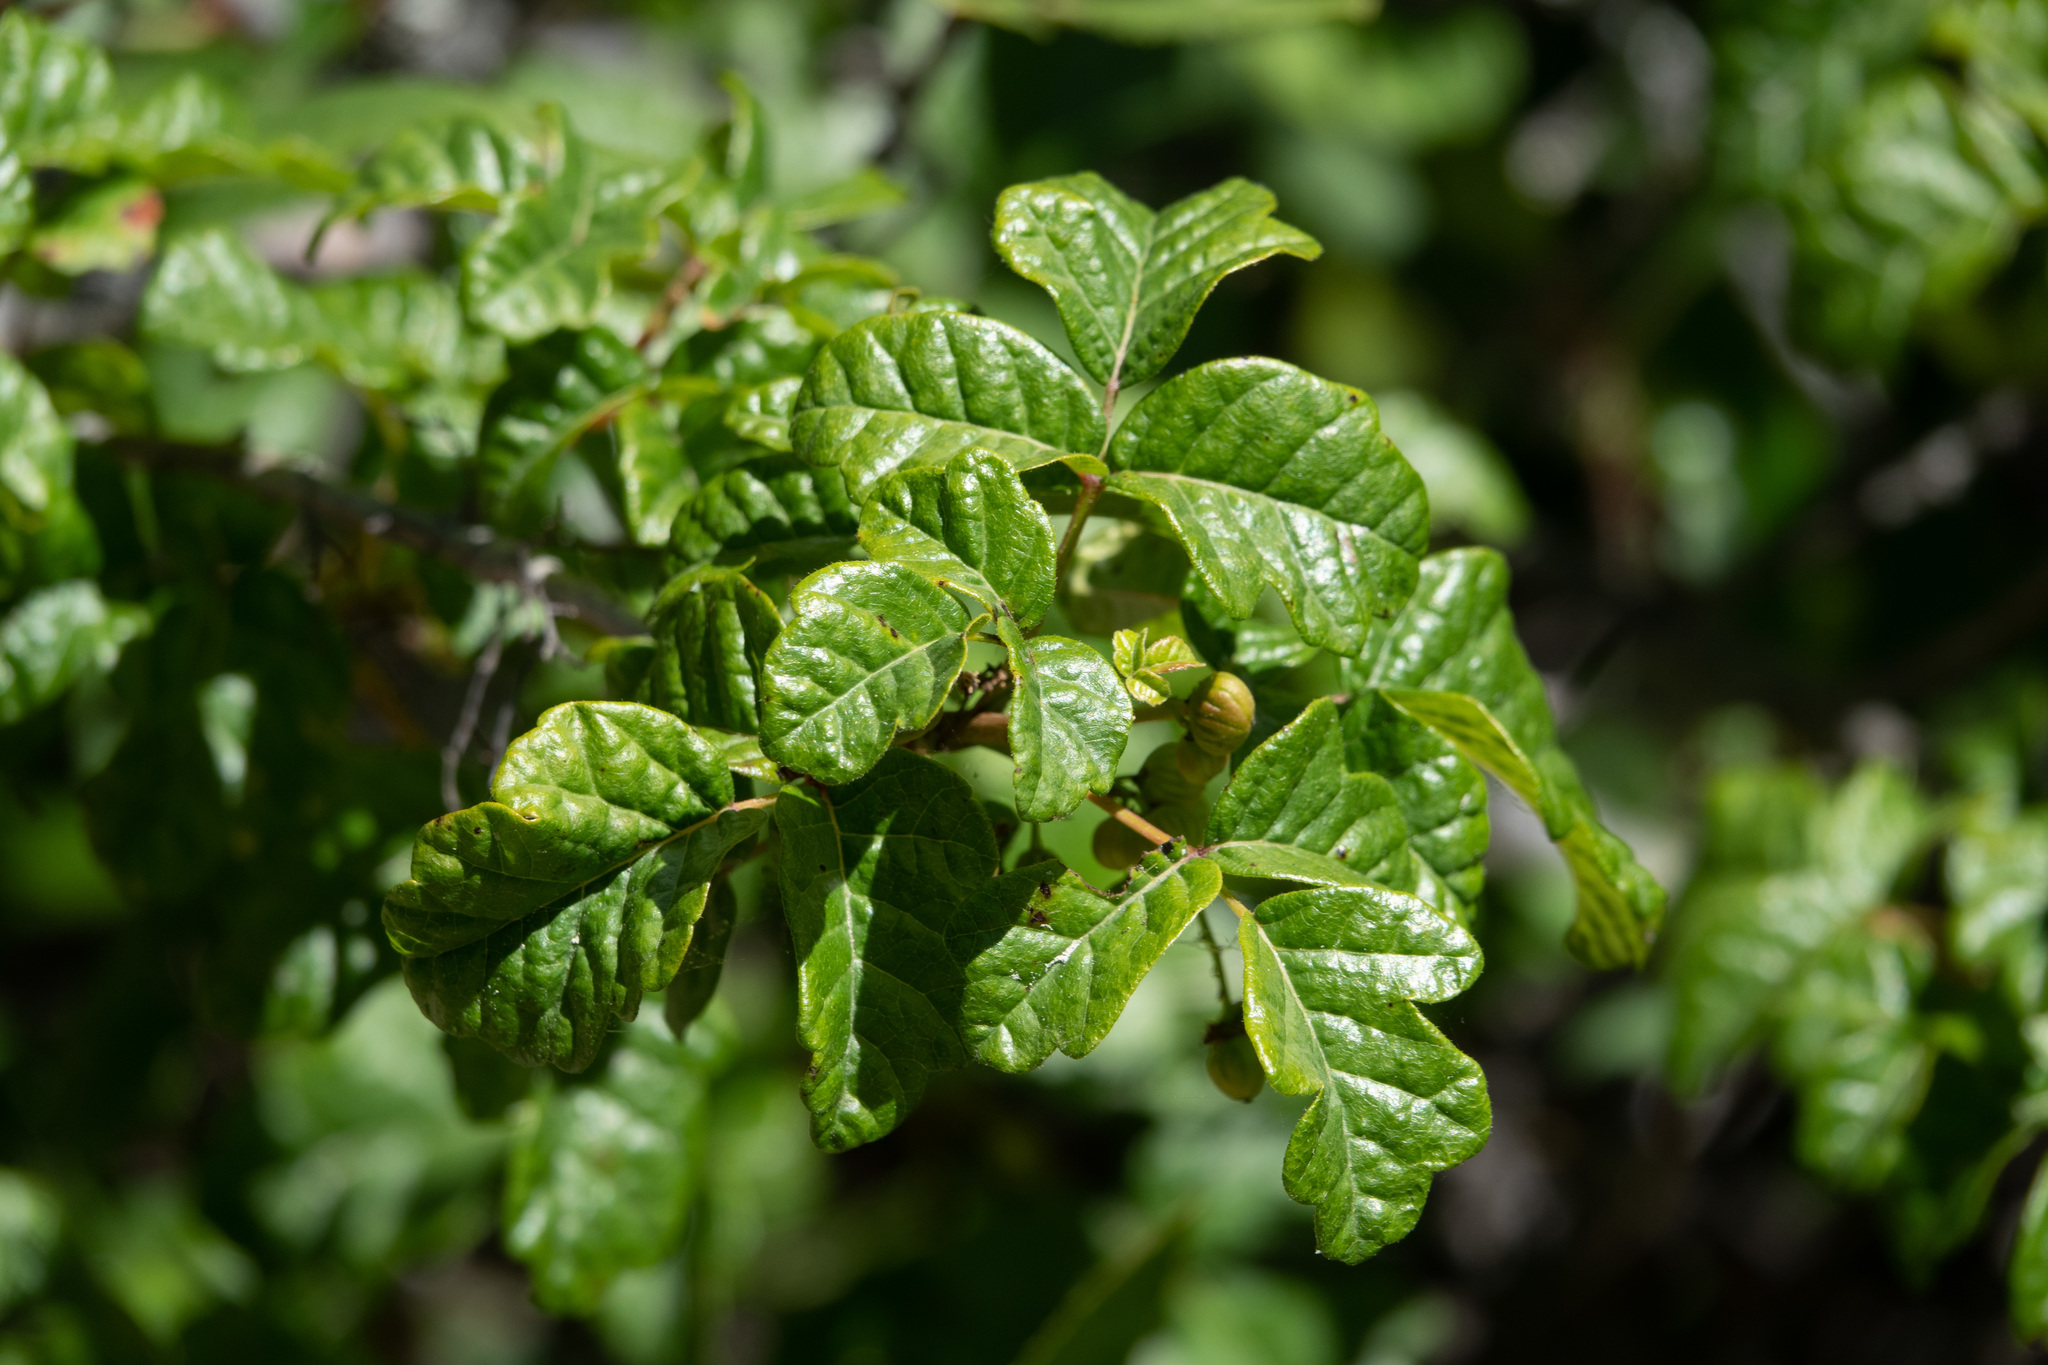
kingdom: Plantae
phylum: Tracheophyta
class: Magnoliopsida
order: Sapindales
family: Anacardiaceae
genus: Toxicodendron
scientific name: Toxicodendron diversilobum
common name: Pacific poison-oak
